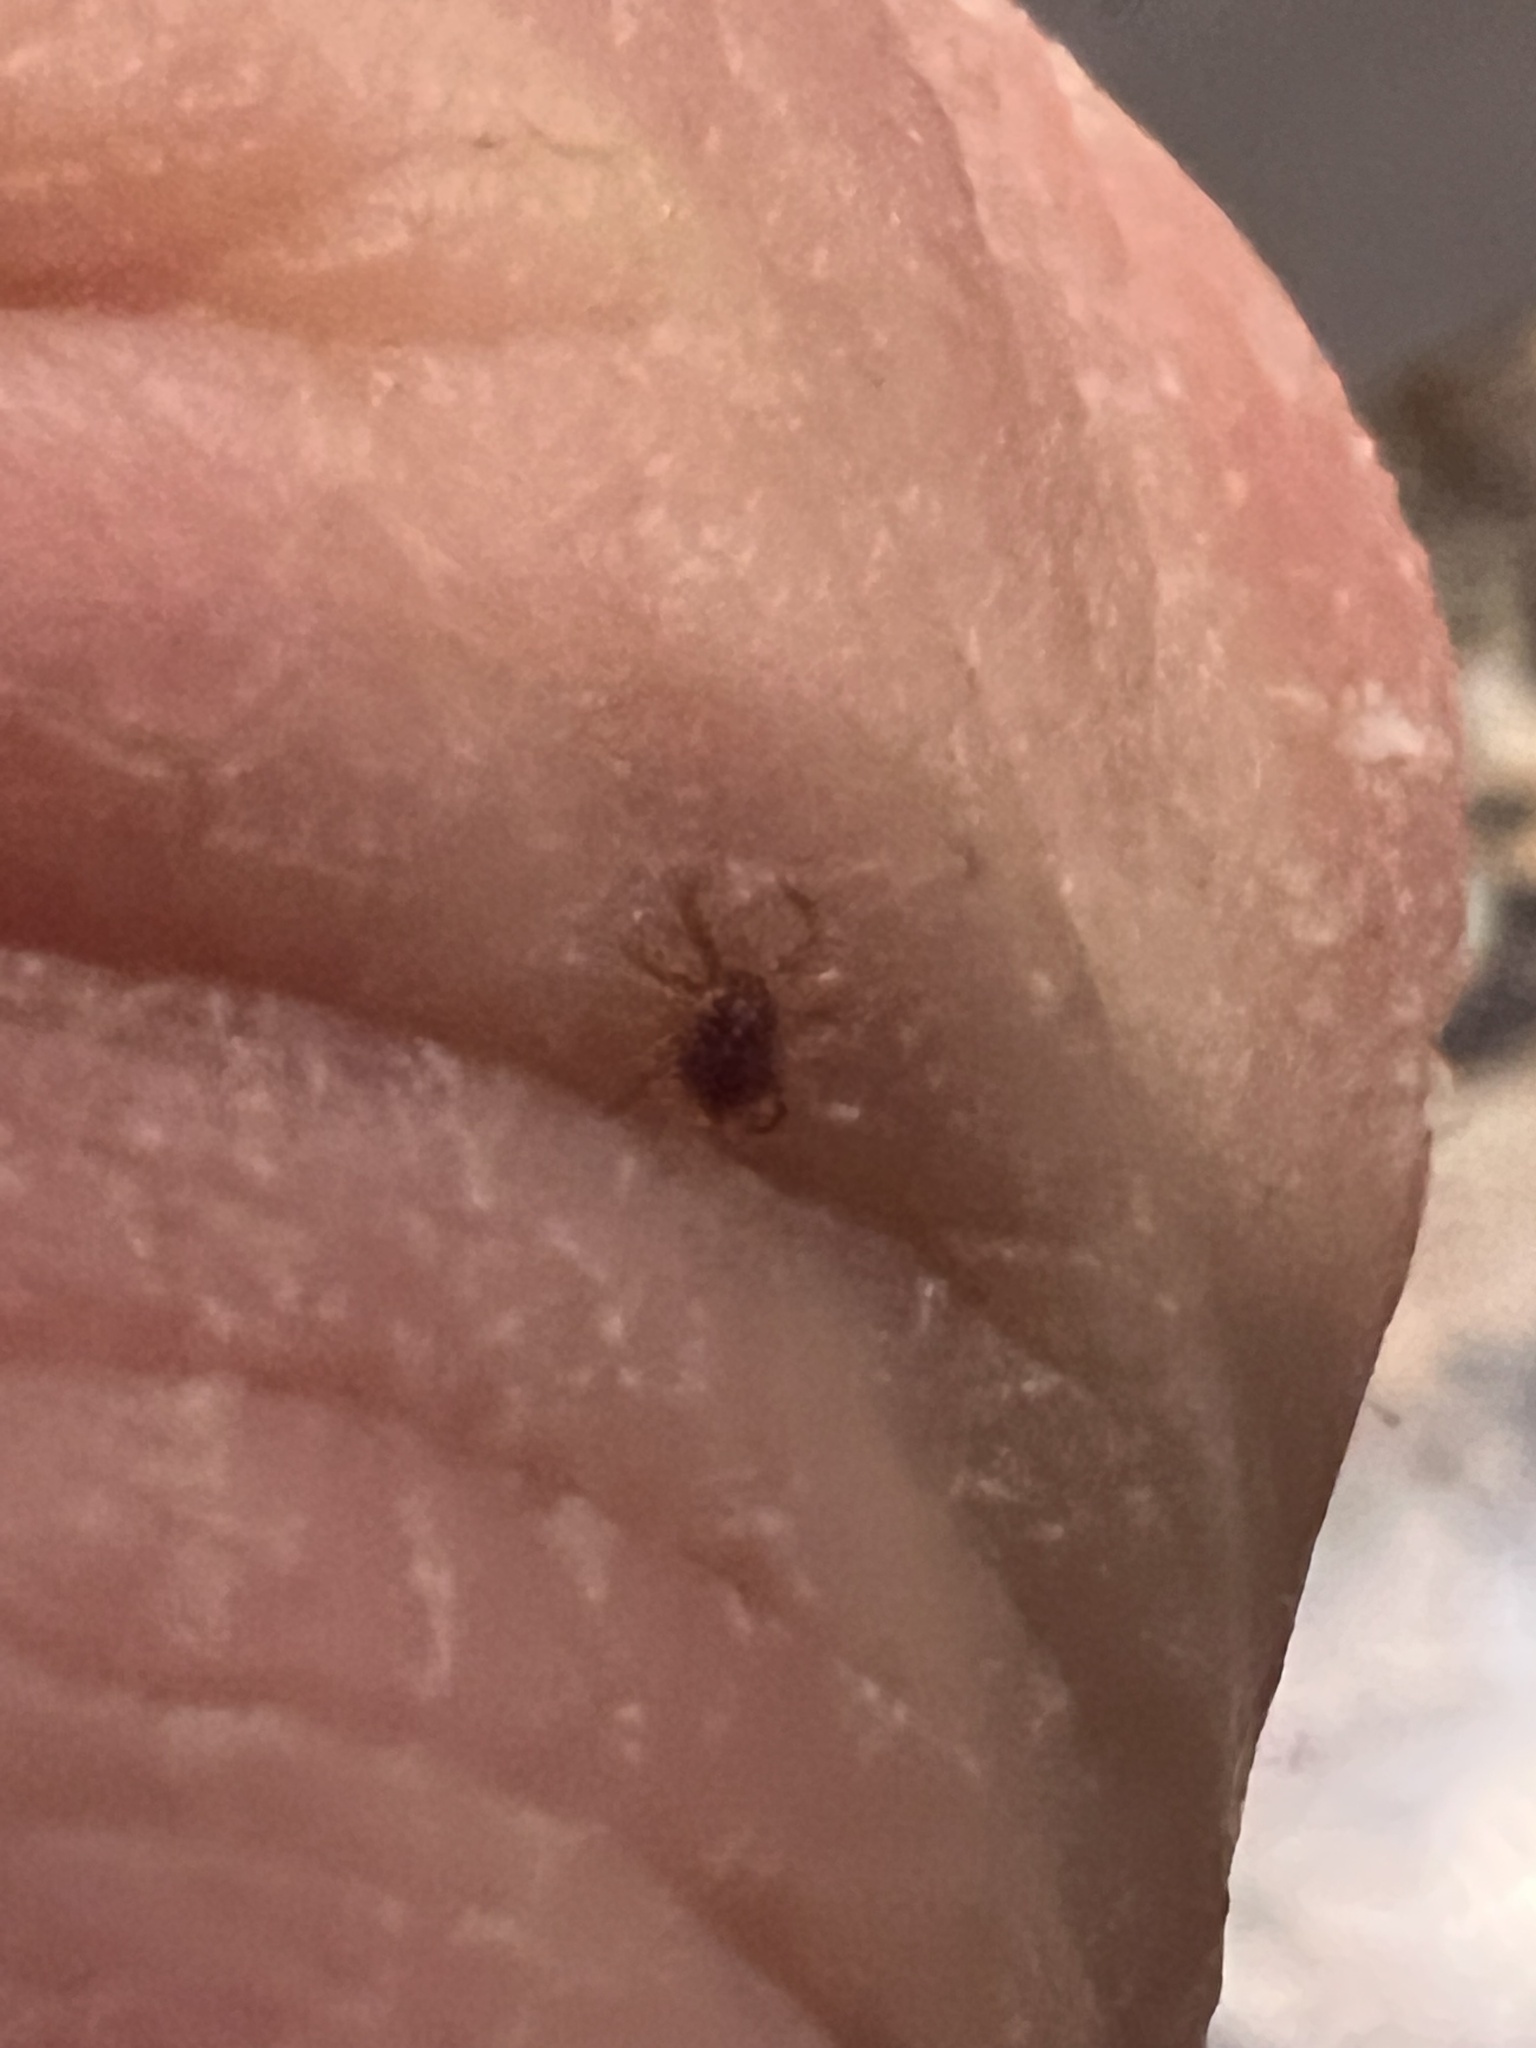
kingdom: Animalia
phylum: Arthropoda
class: Arachnida
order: Ixodida
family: Ixodidae
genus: Amblyomma
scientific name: Amblyomma americanum
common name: Lone star tick
